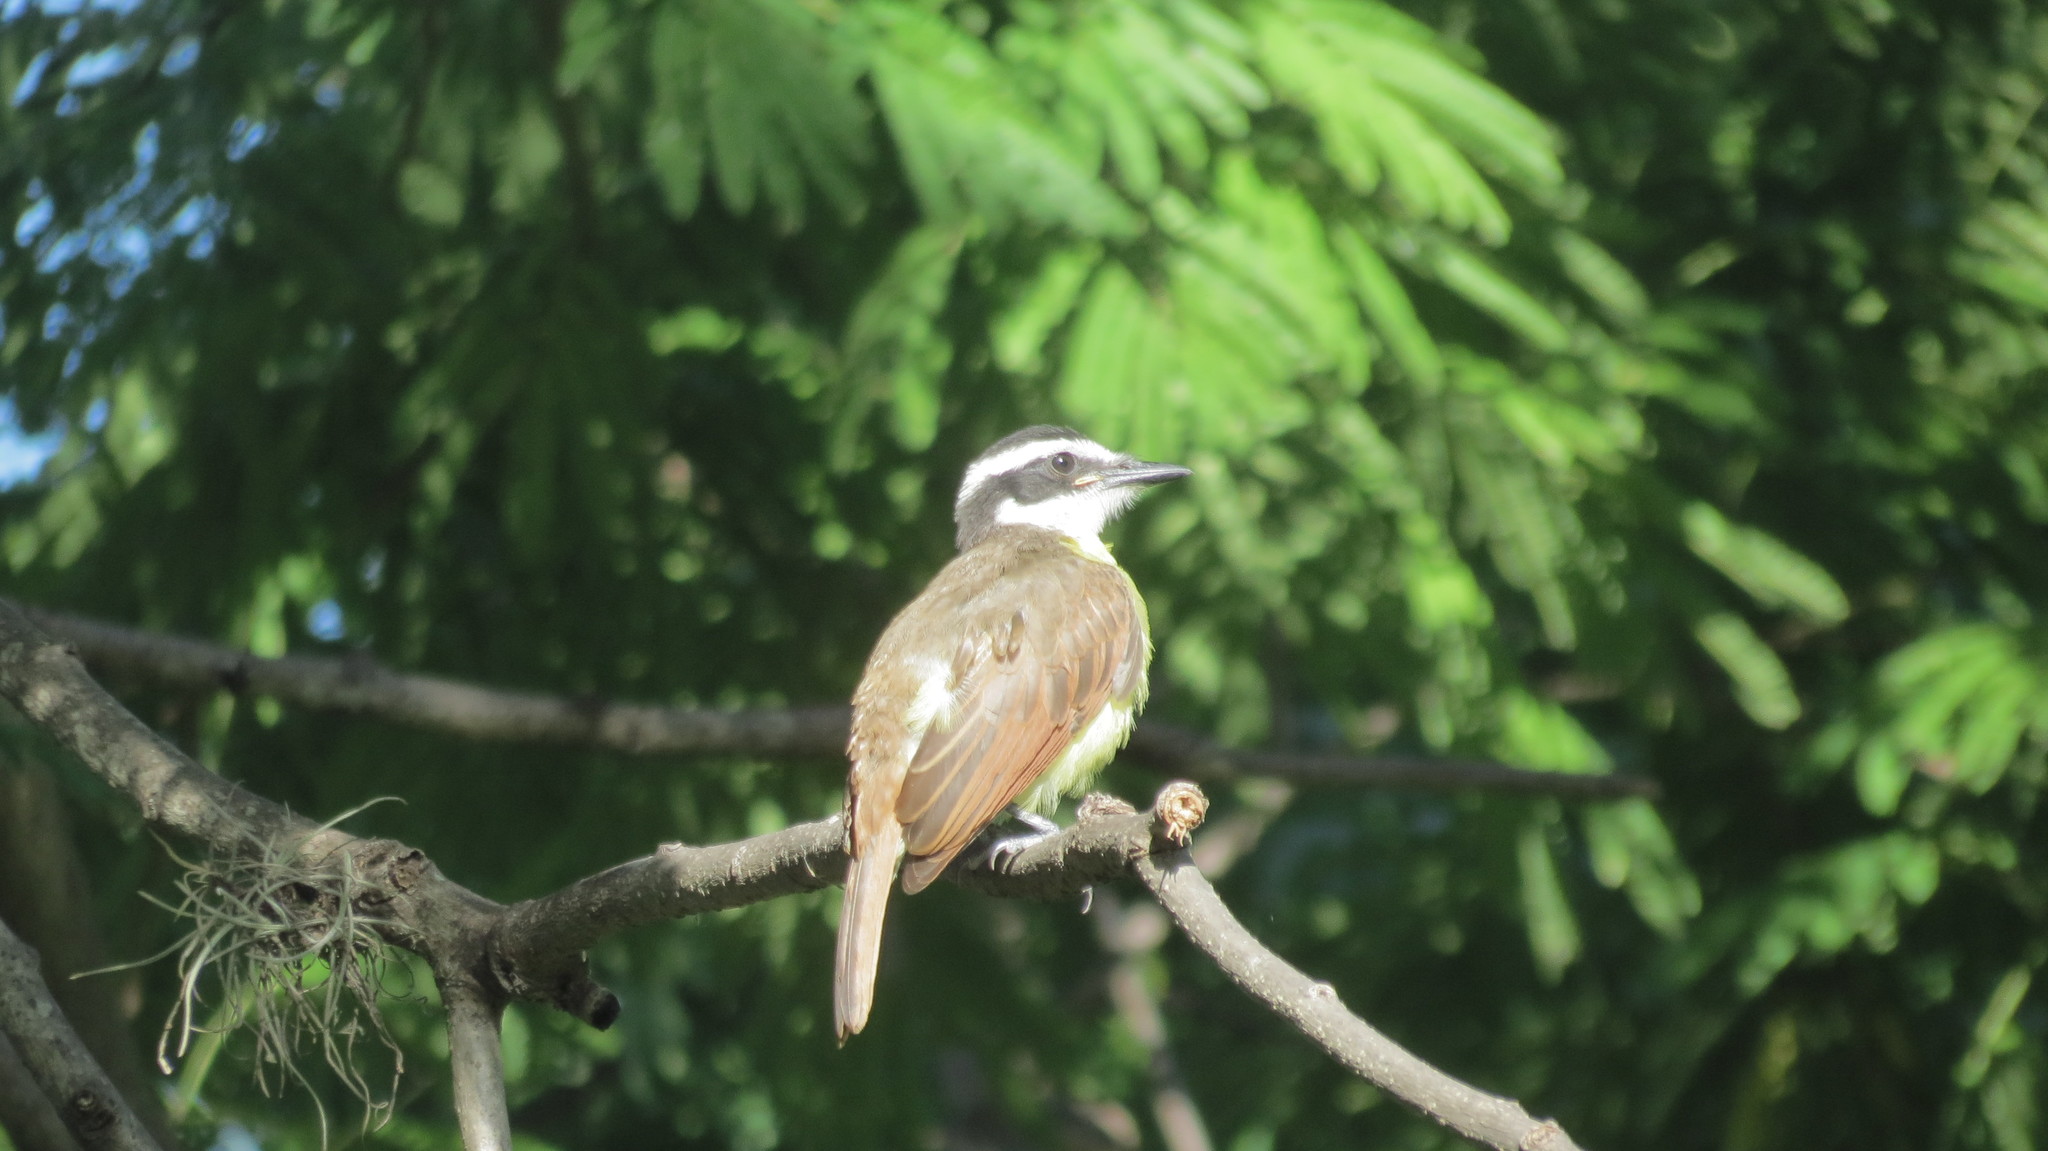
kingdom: Animalia
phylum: Chordata
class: Aves
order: Passeriformes
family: Tyrannidae
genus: Pitangus
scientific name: Pitangus sulphuratus
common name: Great kiskadee
